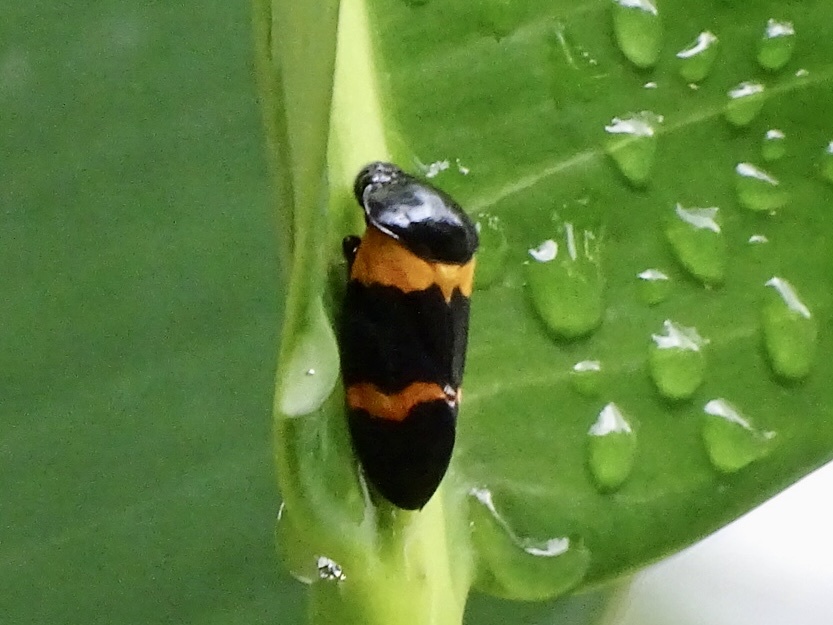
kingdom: Animalia
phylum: Arthropoda
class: Insecta
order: Hemiptera
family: Cercopidae
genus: Cosmoscarta
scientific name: Cosmoscarta abdominalis
